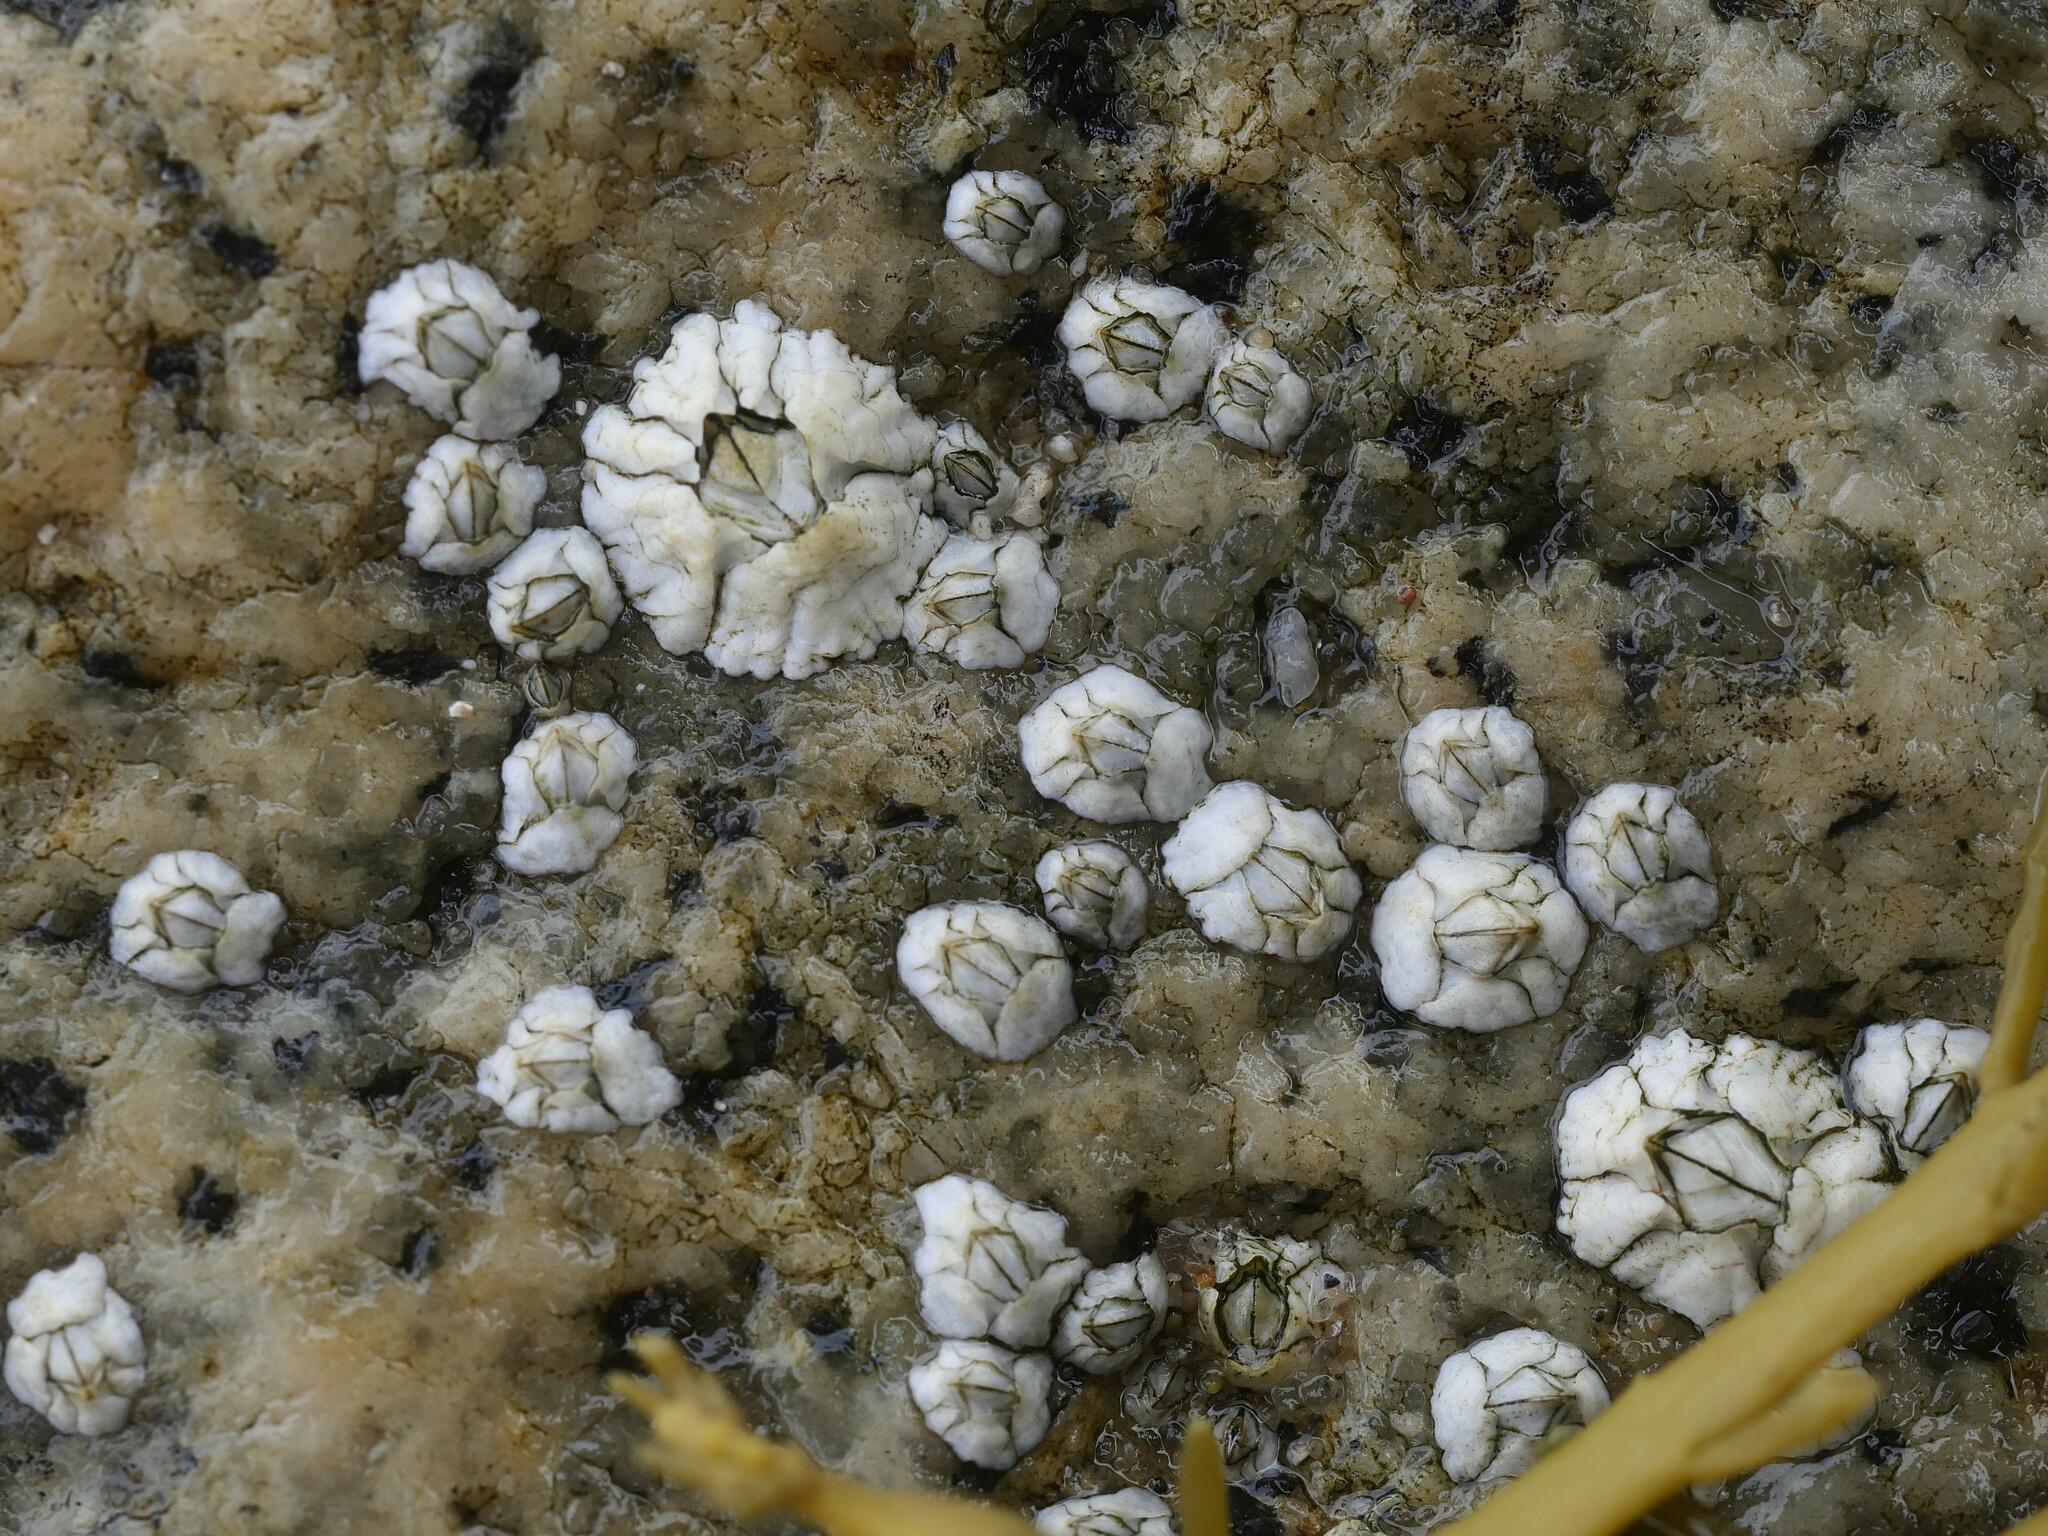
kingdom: Animalia
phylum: Arthropoda
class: Maxillopoda
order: Sessilia
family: Archaeobalanidae
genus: Semibalanus
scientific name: Semibalanus balanoides
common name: Acorn barnacle
